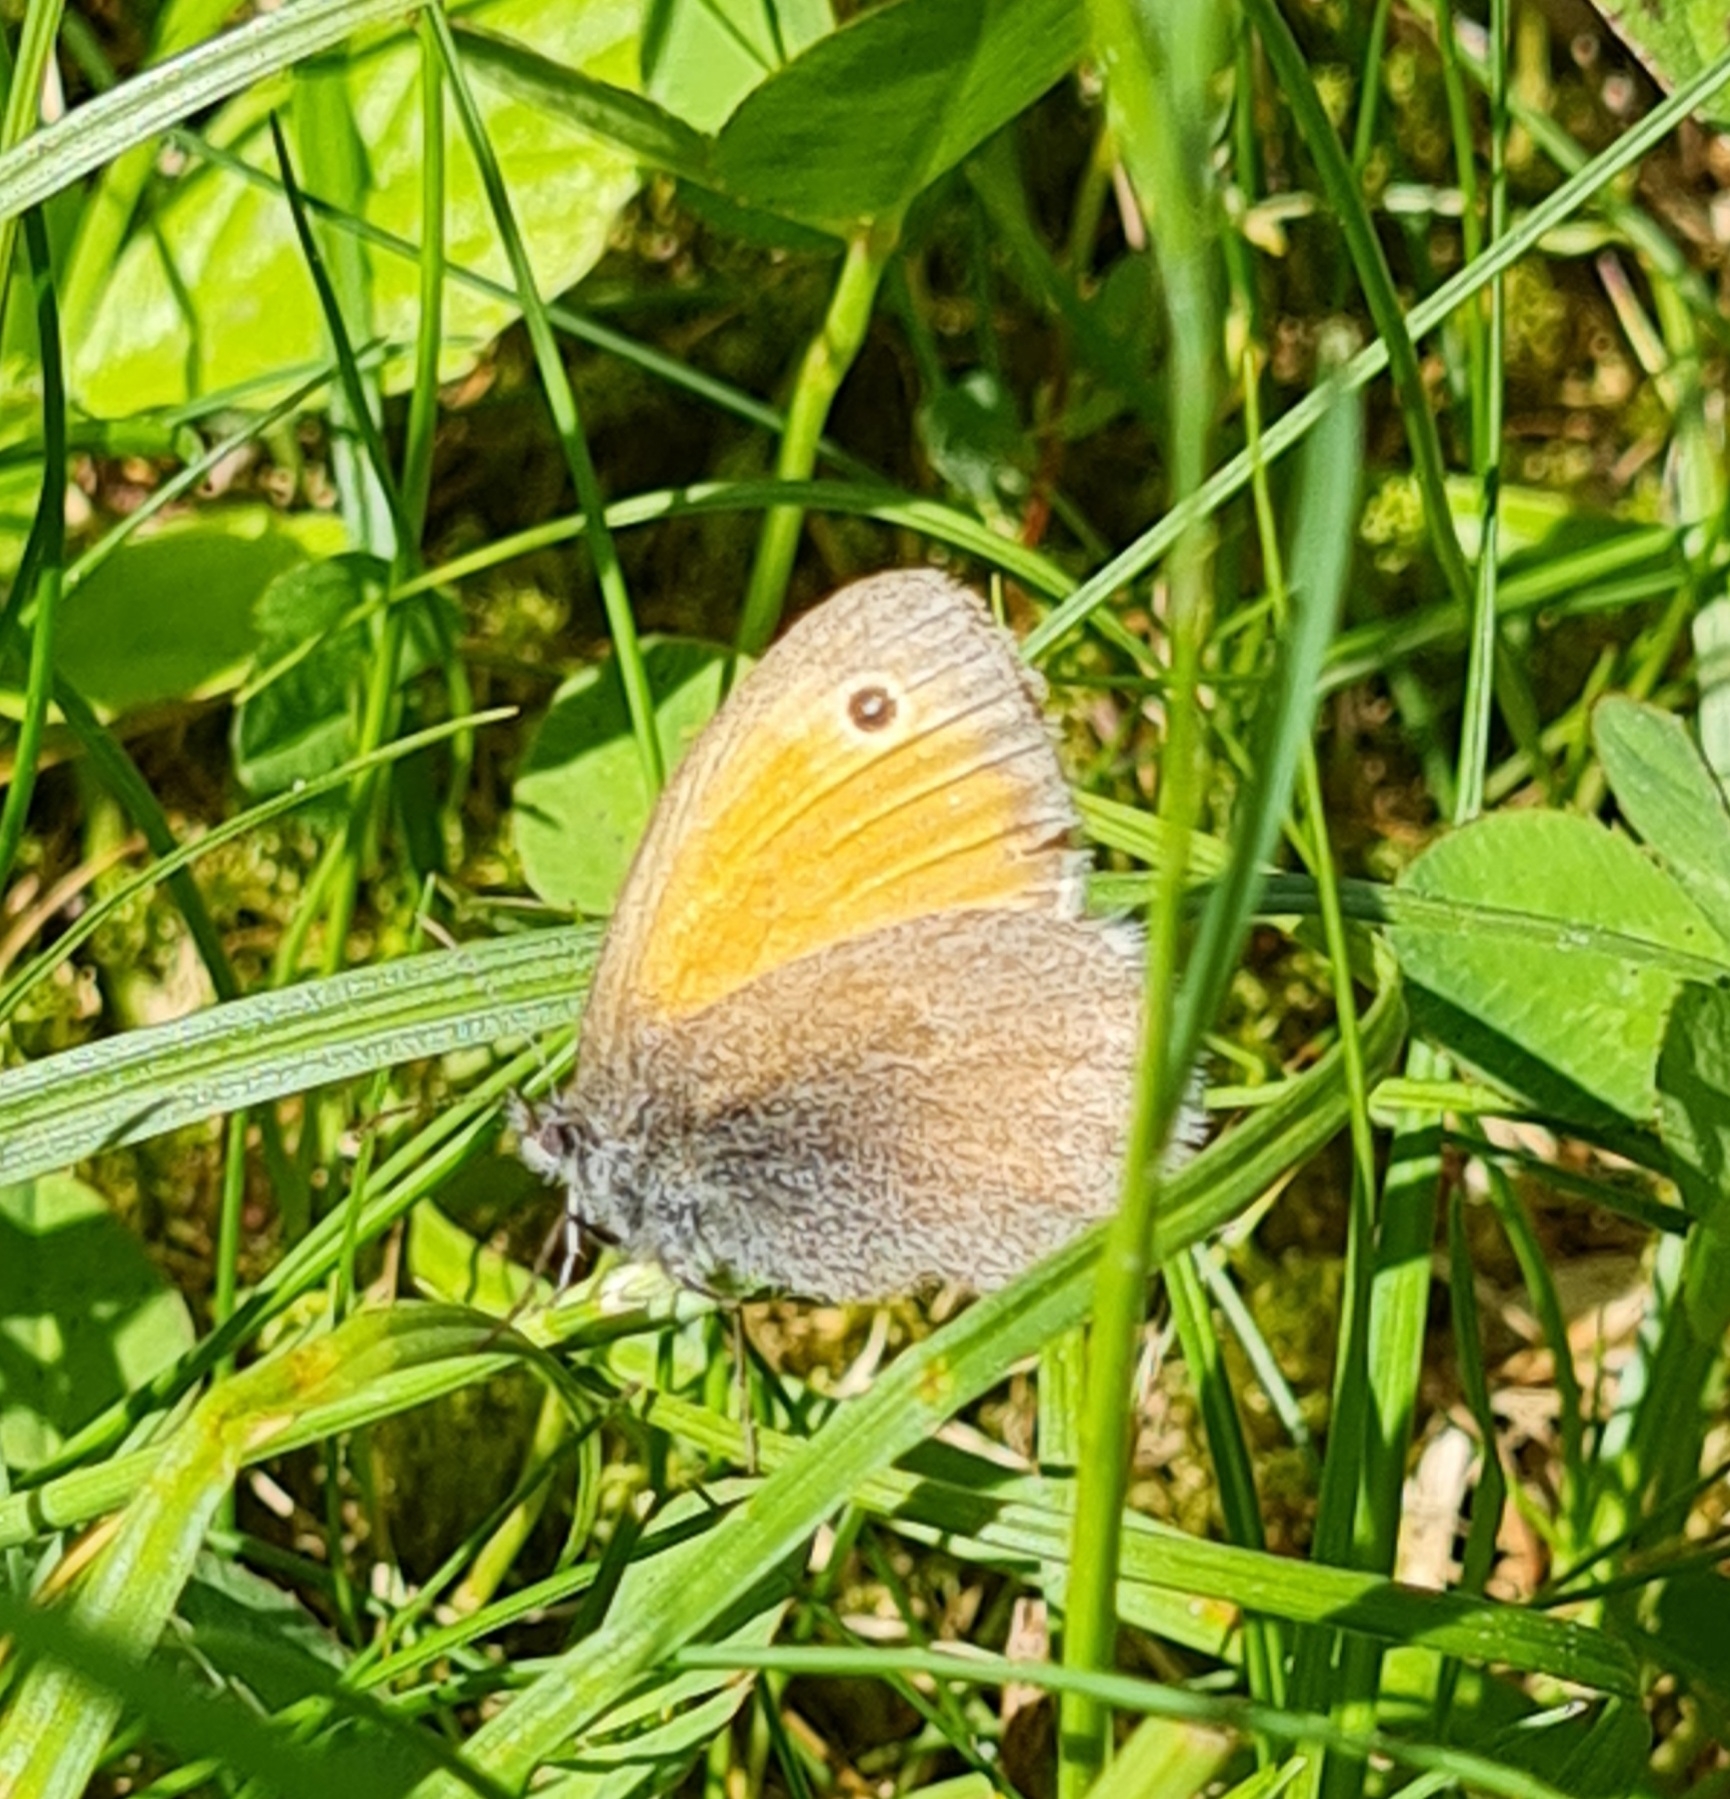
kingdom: Animalia
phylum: Arthropoda
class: Insecta
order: Lepidoptera
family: Nymphalidae
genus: Coenonympha
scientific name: Coenonympha pamphilus
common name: Small heath
